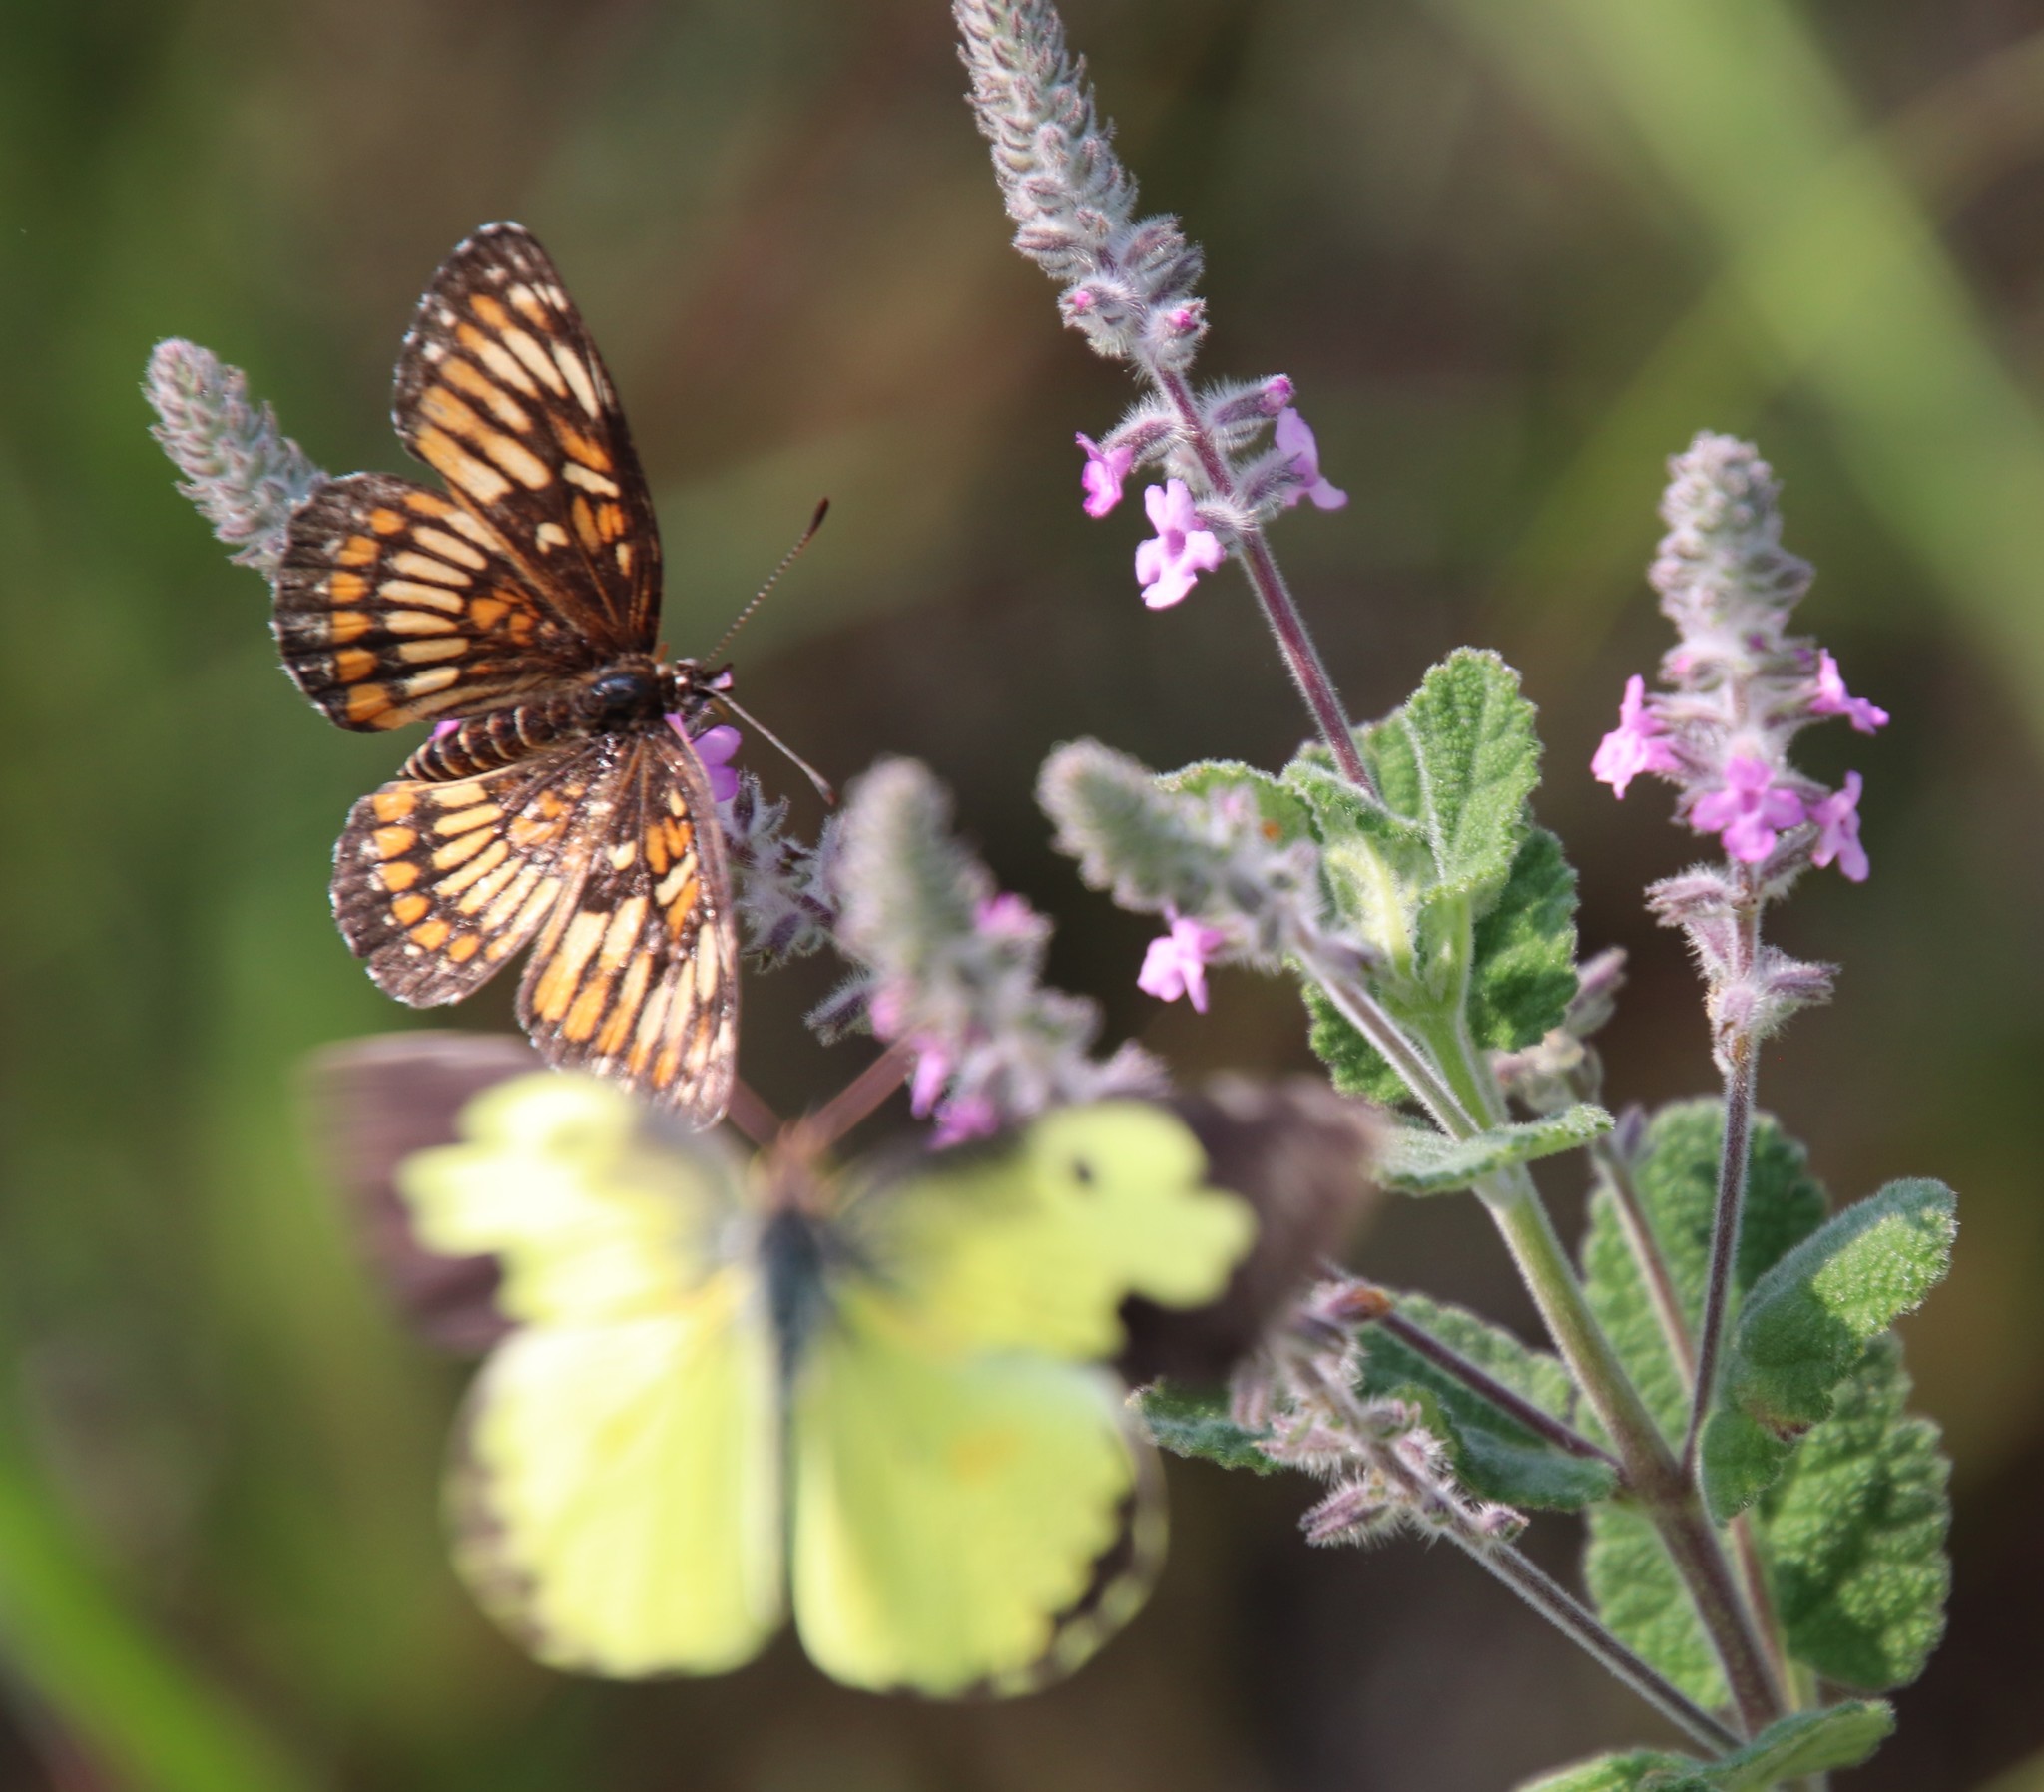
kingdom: Animalia
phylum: Arthropoda
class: Insecta
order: Lepidoptera
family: Nymphalidae
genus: Thessalia
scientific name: Thessalia theona
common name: Nymphalid moth
